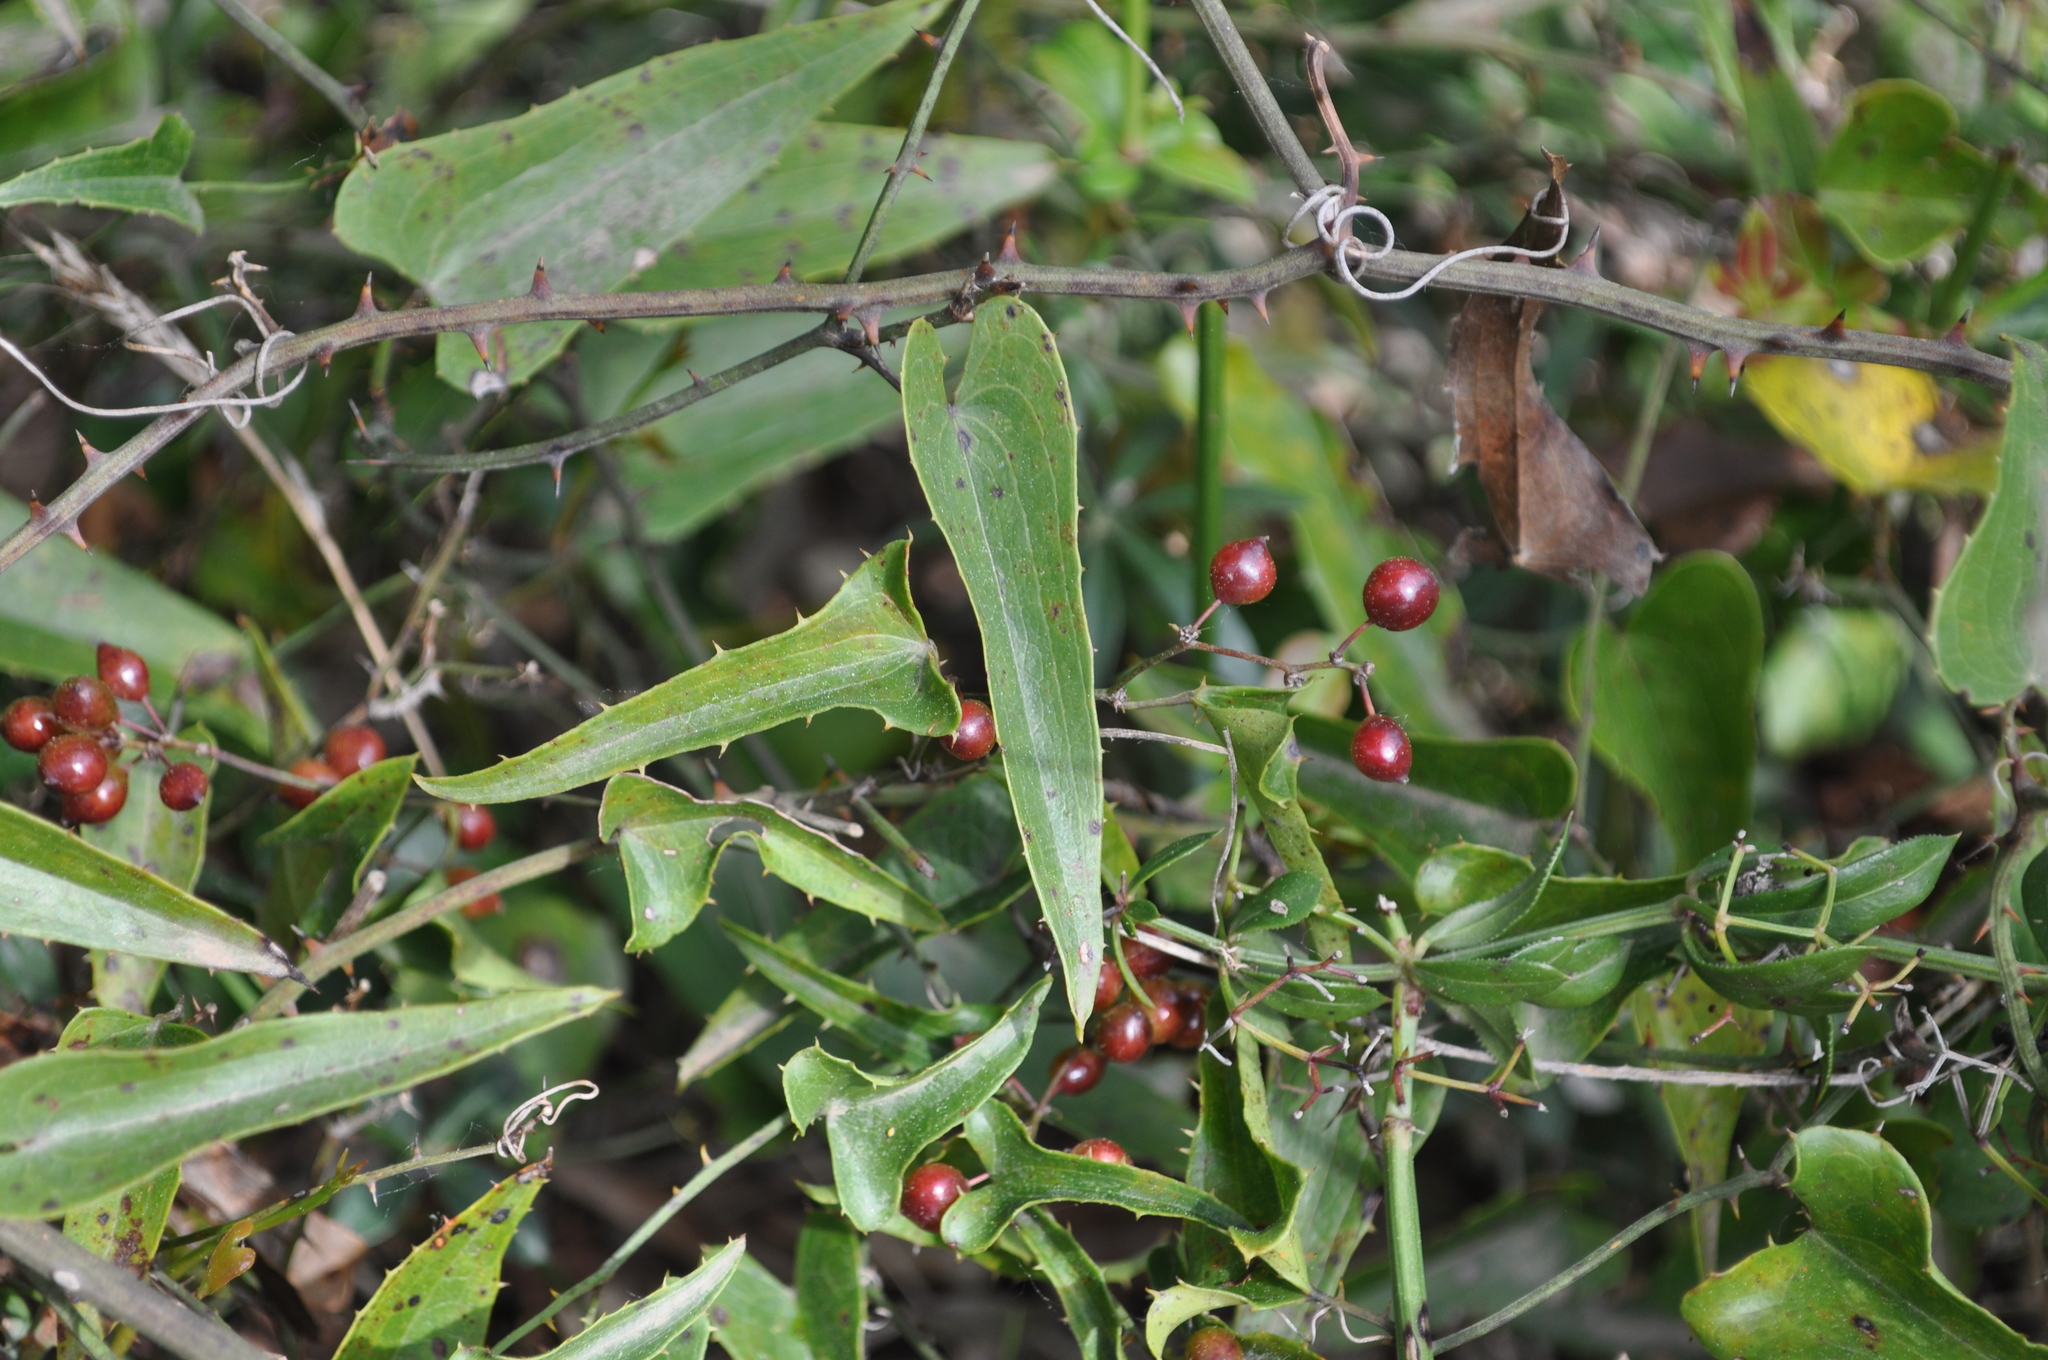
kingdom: Plantae
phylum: Tracheophyta
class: Liliopsida
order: Liliales
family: Smilacaceae
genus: Smilax
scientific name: Smilax aspera
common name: Common smilax
